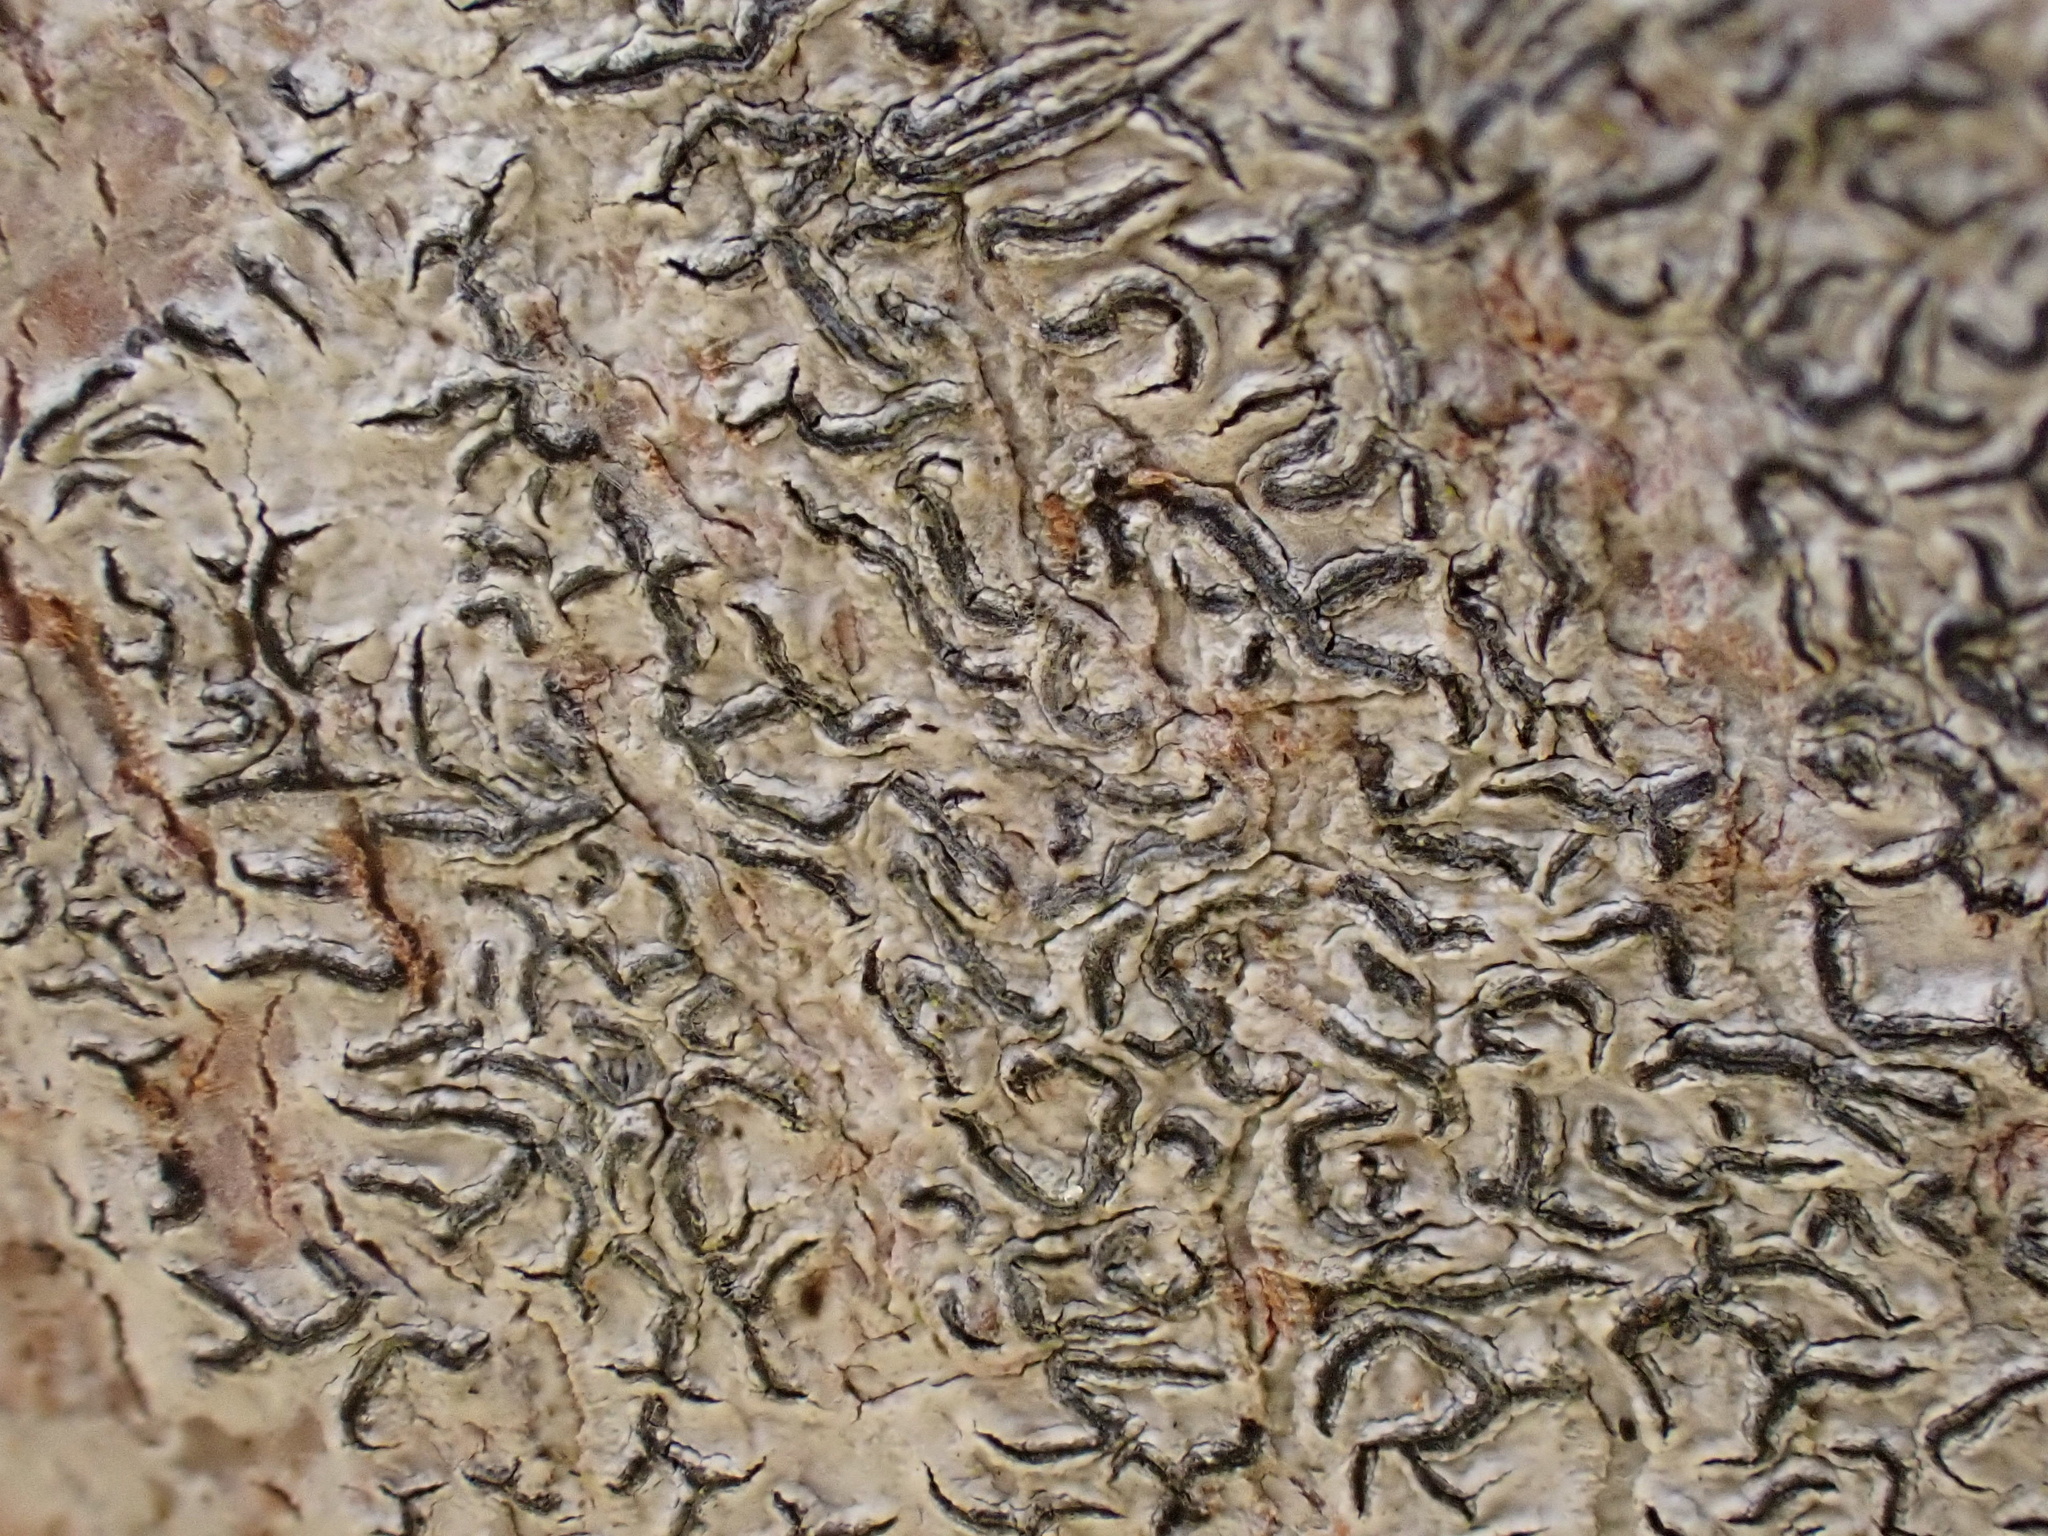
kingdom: Fungi
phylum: Ascomycota
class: Lecanoromycetes
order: Ostropales
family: Graphidaceae
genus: Graphis
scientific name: Graphis scripta
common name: Script lichen
